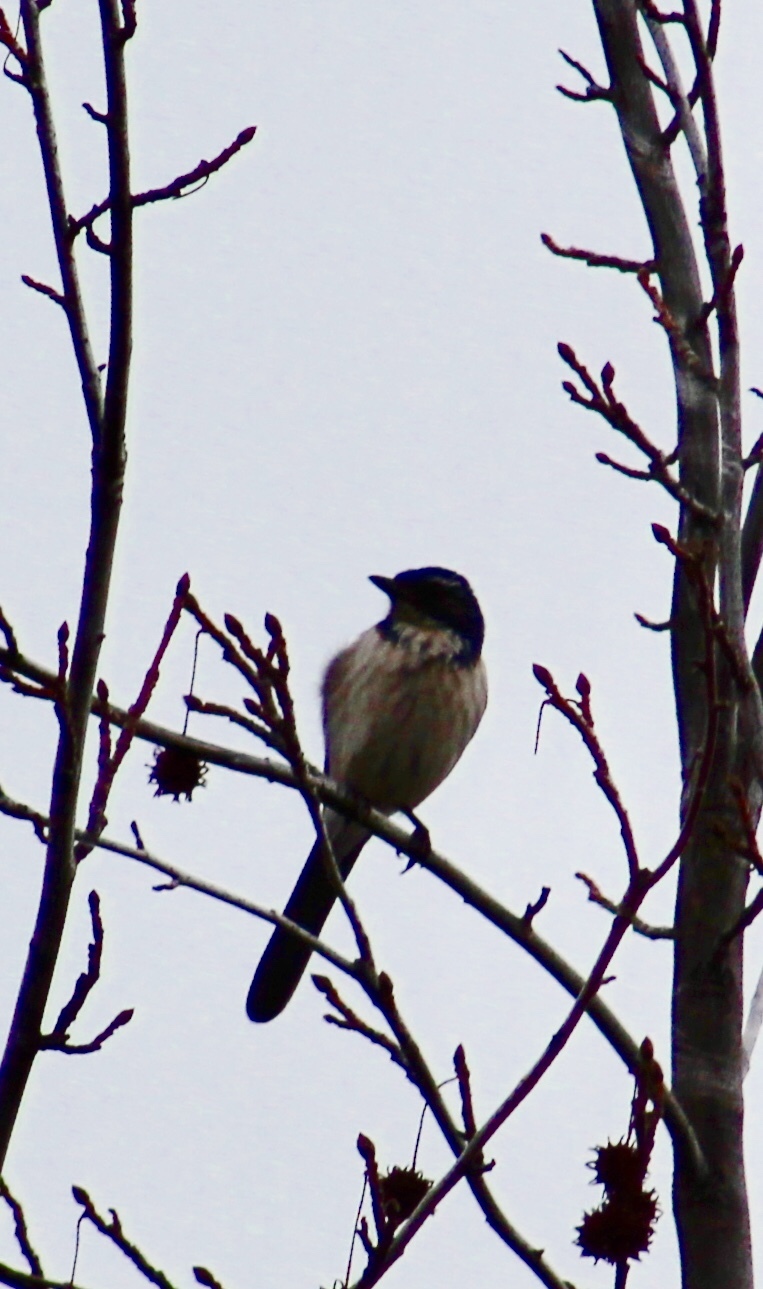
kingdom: Animalia
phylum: Chordata
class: Aves
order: Passeriformes
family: Corvidae
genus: Aphelocoma
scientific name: Aphelocoma californica
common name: California scrub-jay
